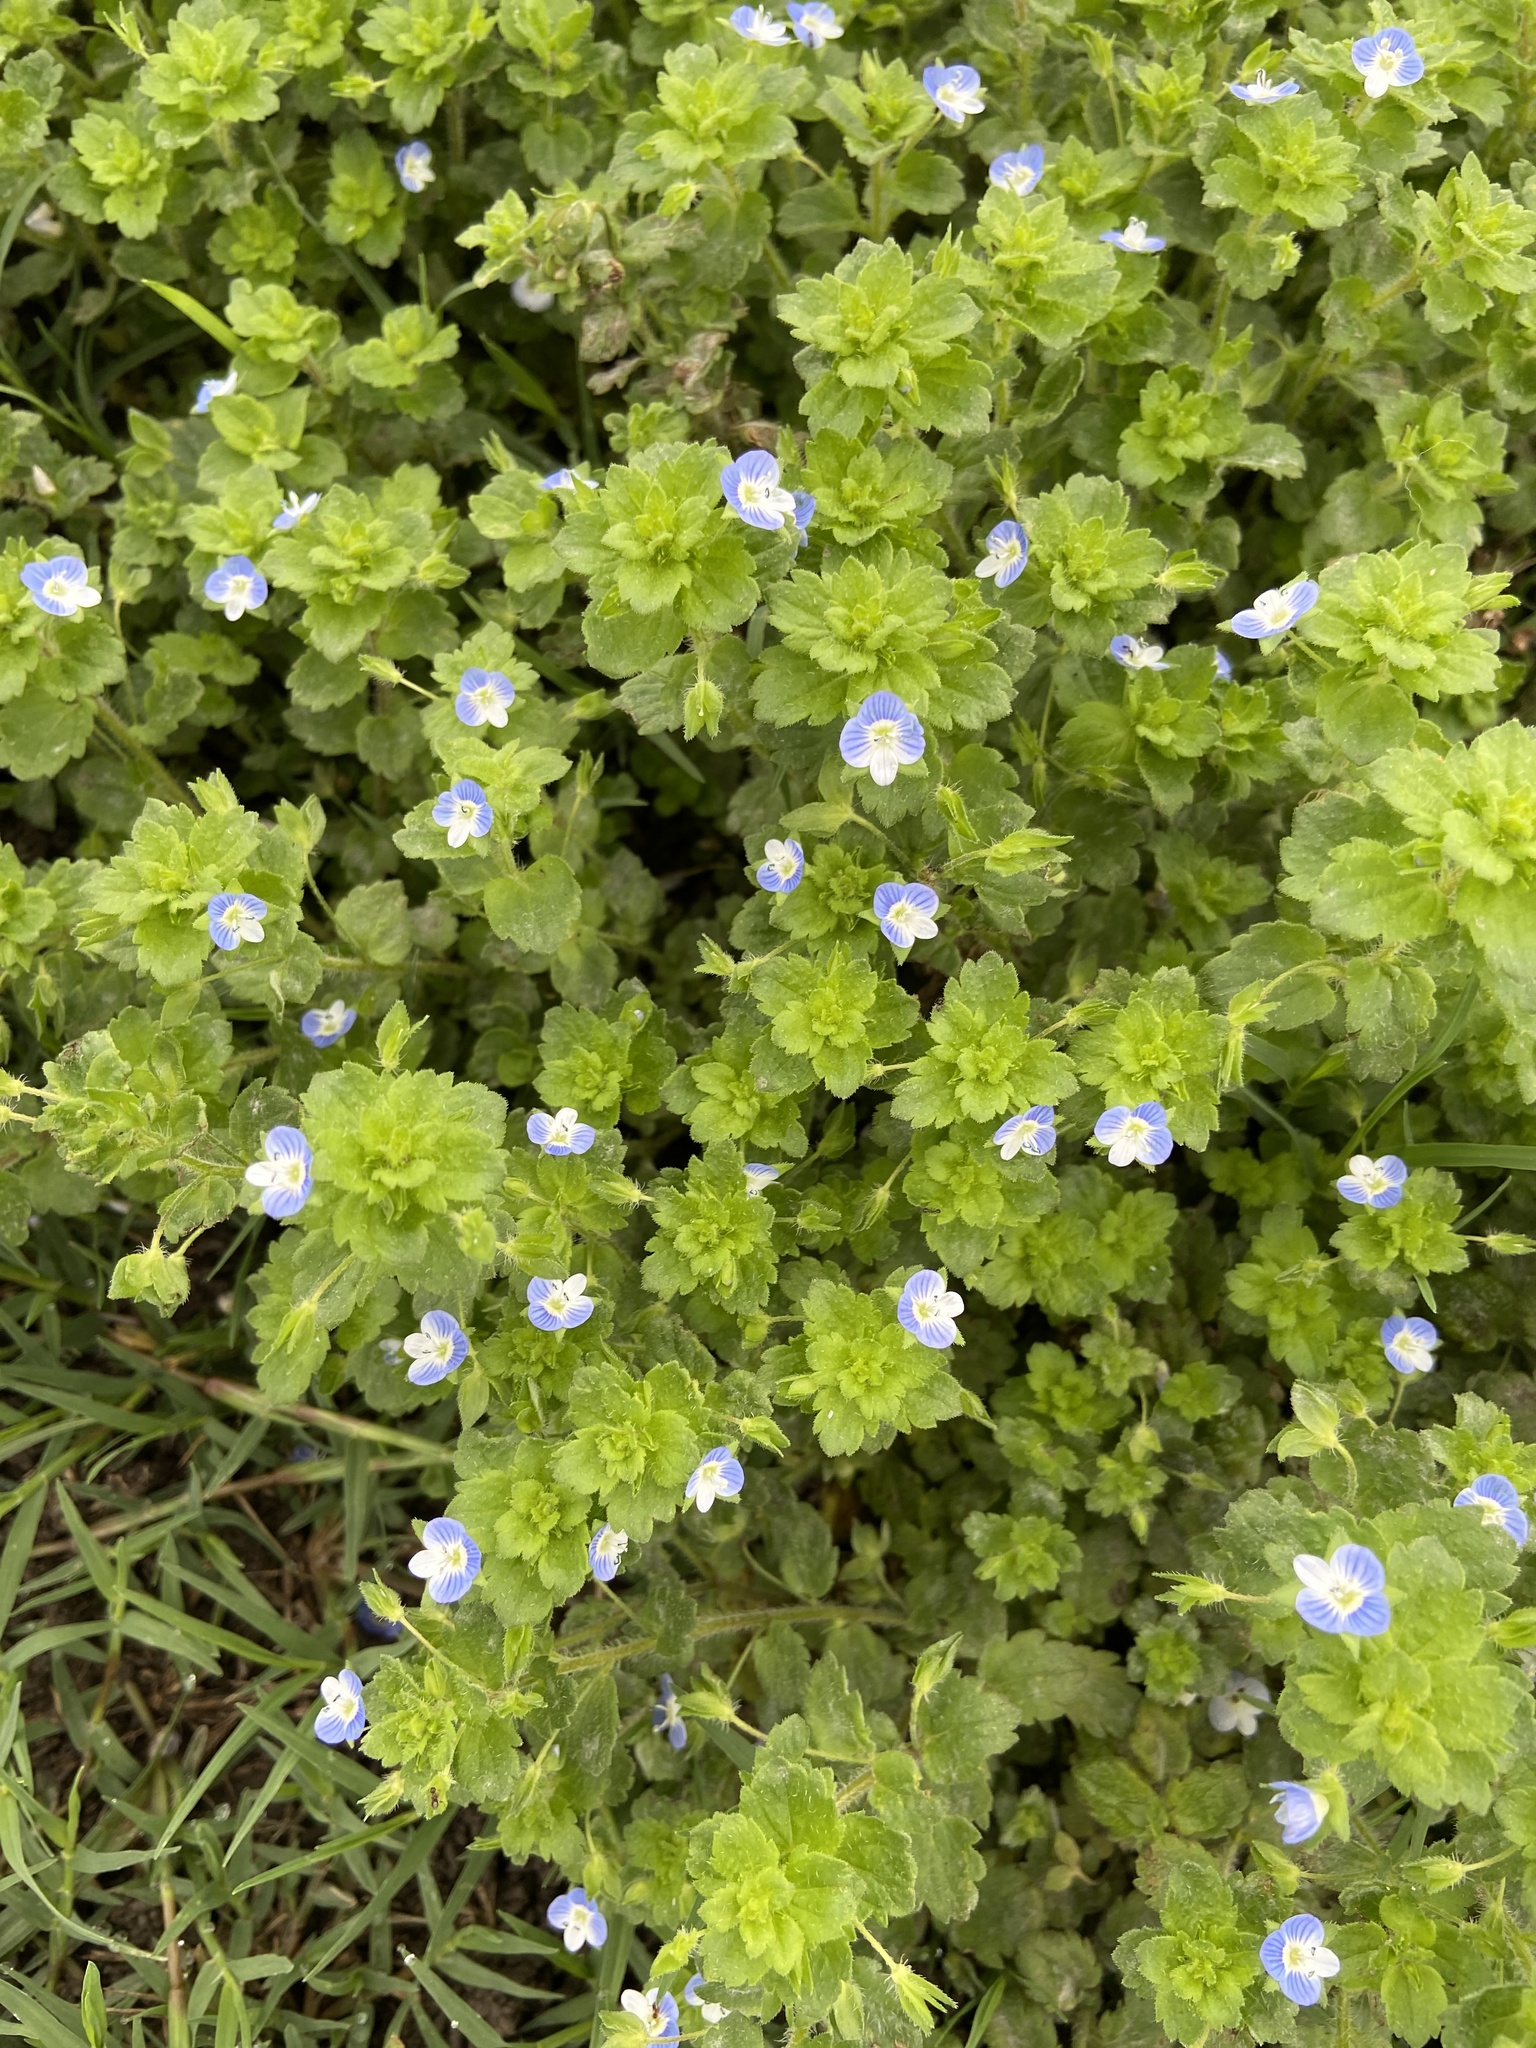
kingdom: Plantae
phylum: Tracheophyta
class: Magnoliopsida
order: Lamiales
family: Plantaginaceae
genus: Veronica
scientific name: Veronica persica
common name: Common field-speedwell
